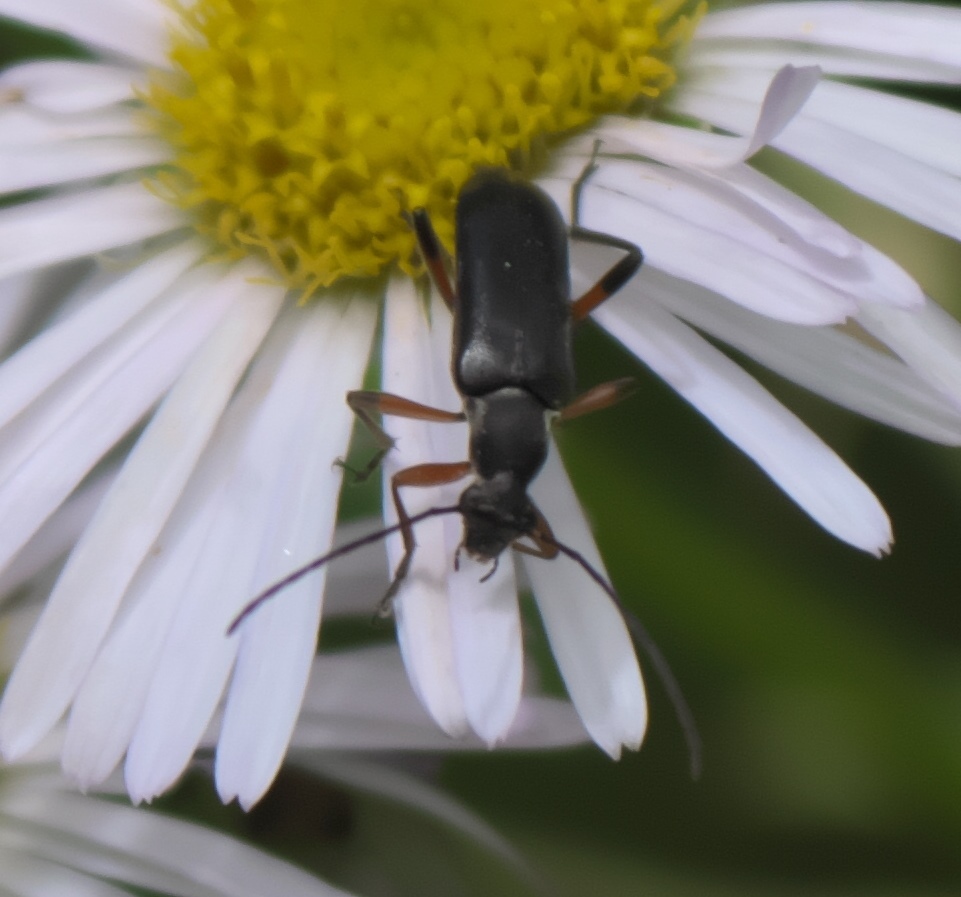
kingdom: Animalia
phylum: Arthropoda
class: Insecta
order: Coleoptera
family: Cerambycidae
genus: Grammoptera
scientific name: Grammoptera subargentata
